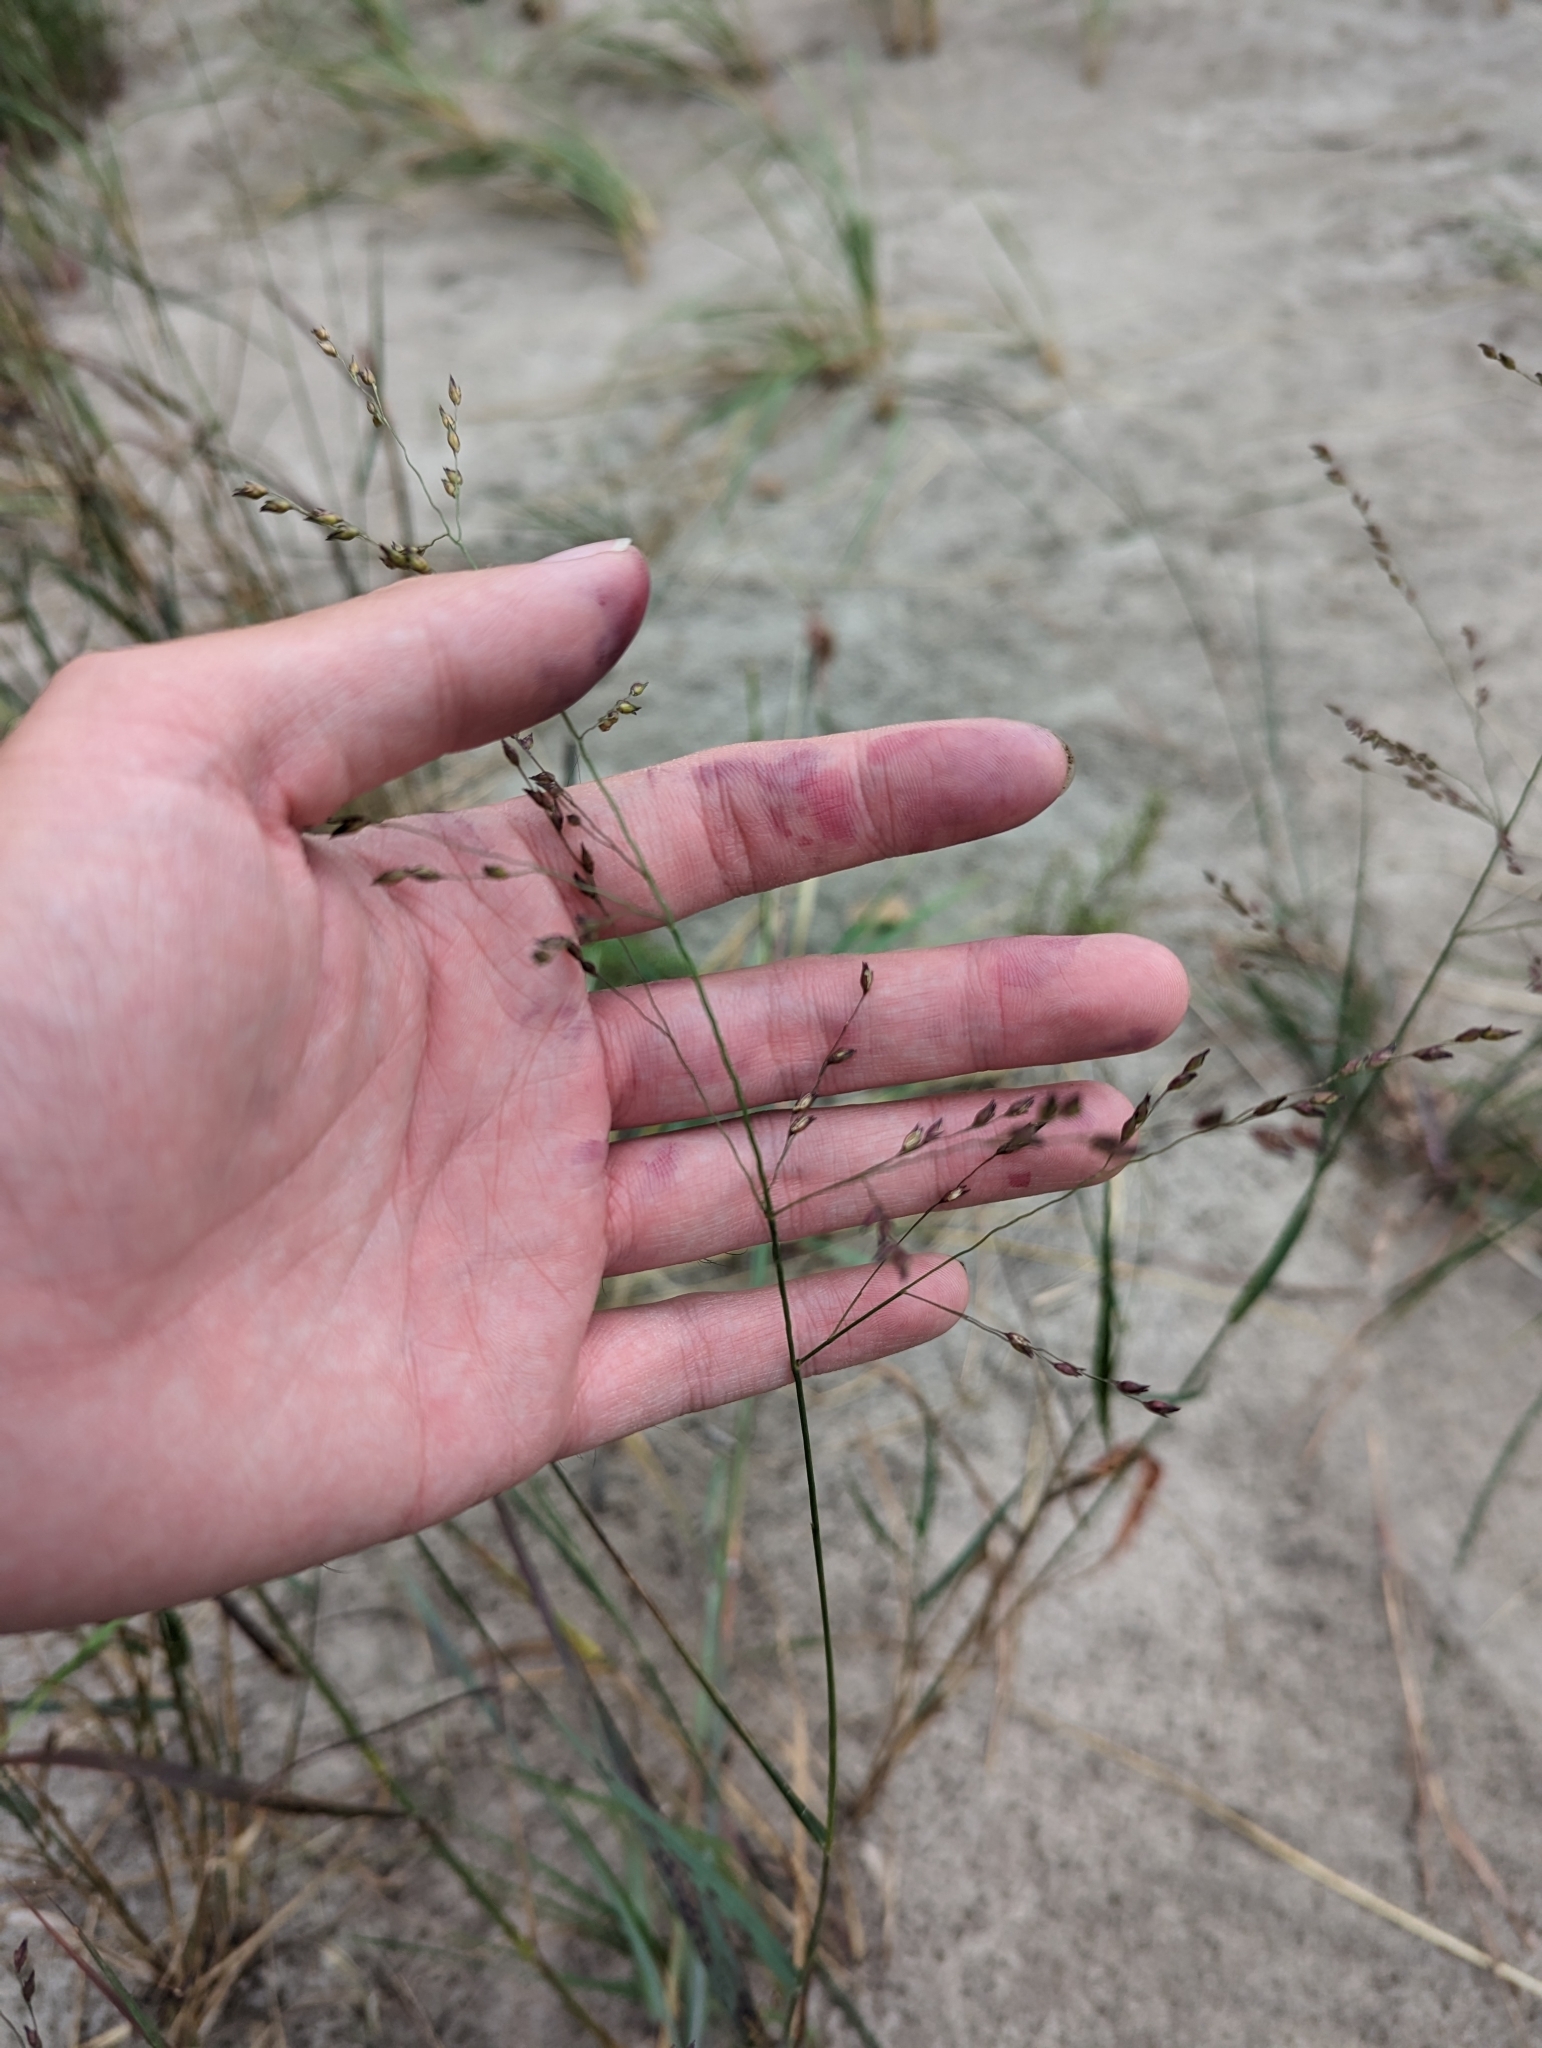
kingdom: Plantae
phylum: Tracheophyta
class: Liliopsida
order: Poales
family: Poaceae
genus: Panicum
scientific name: Panicum virgatum
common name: Switchgrass
